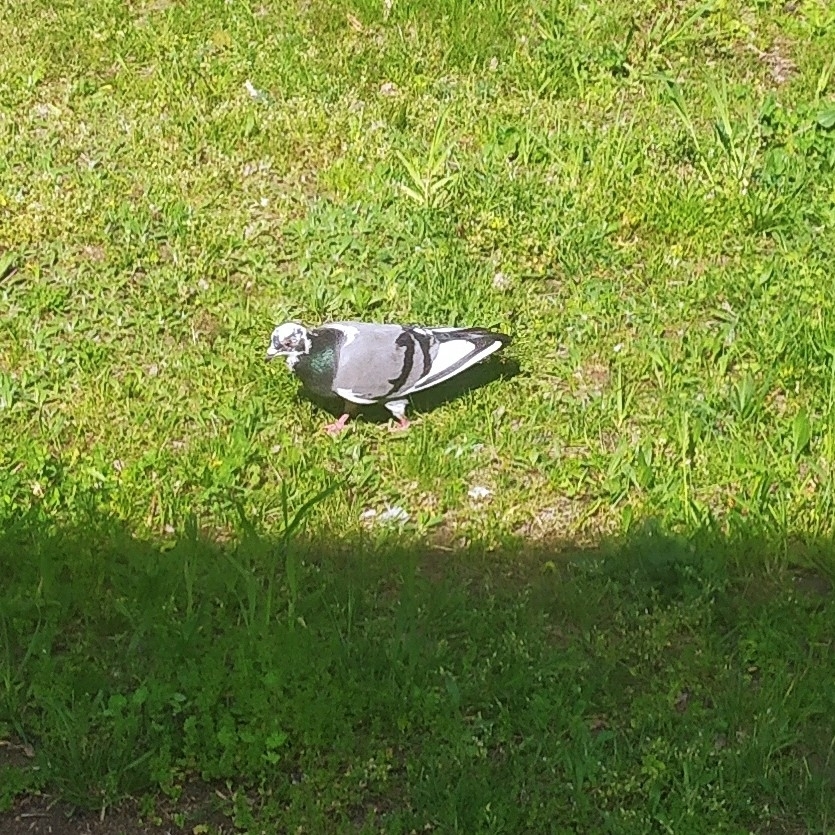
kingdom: Animalia
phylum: Chordata
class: Aves
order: Columbiformes
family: Columbidae
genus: Columba
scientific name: Columba livia
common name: Rock pigeon
